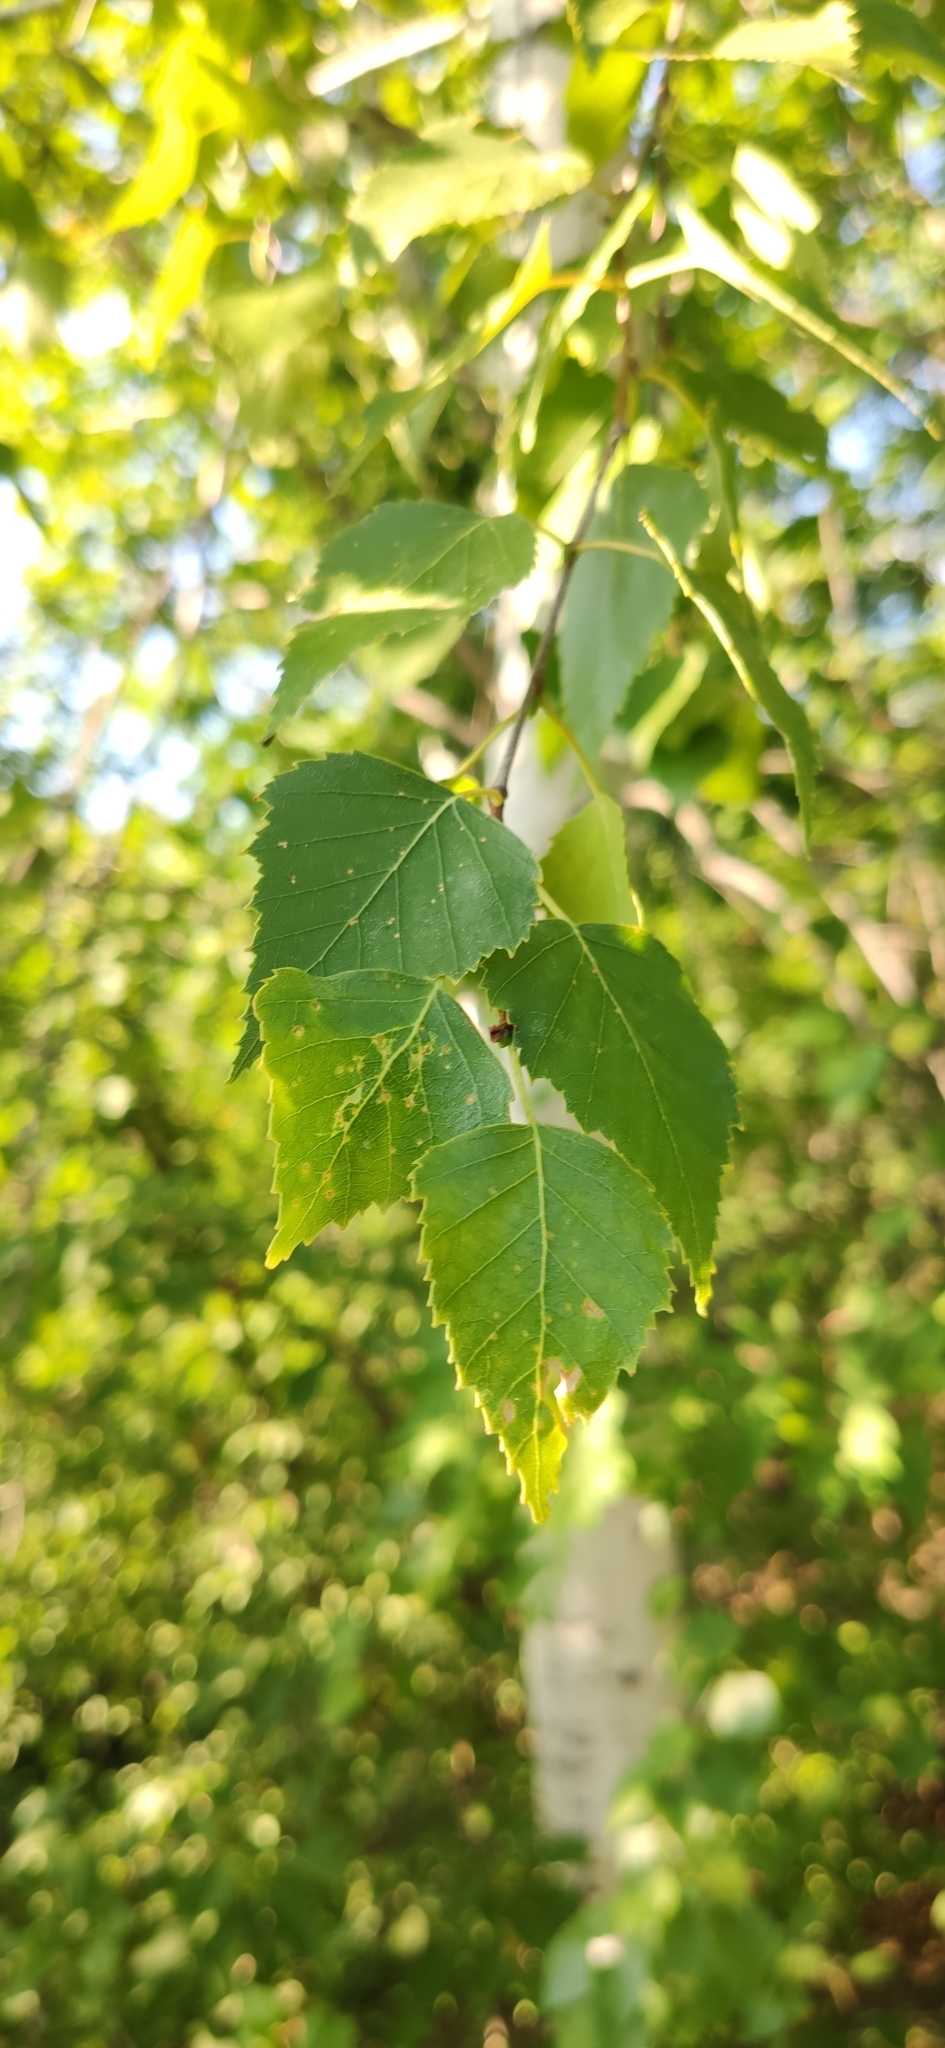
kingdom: Plantae
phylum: Tracheophyta
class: Magnoliopsida
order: Fagales
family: Betulaceae
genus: Betula
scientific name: Betula pendula
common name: Silver birch
